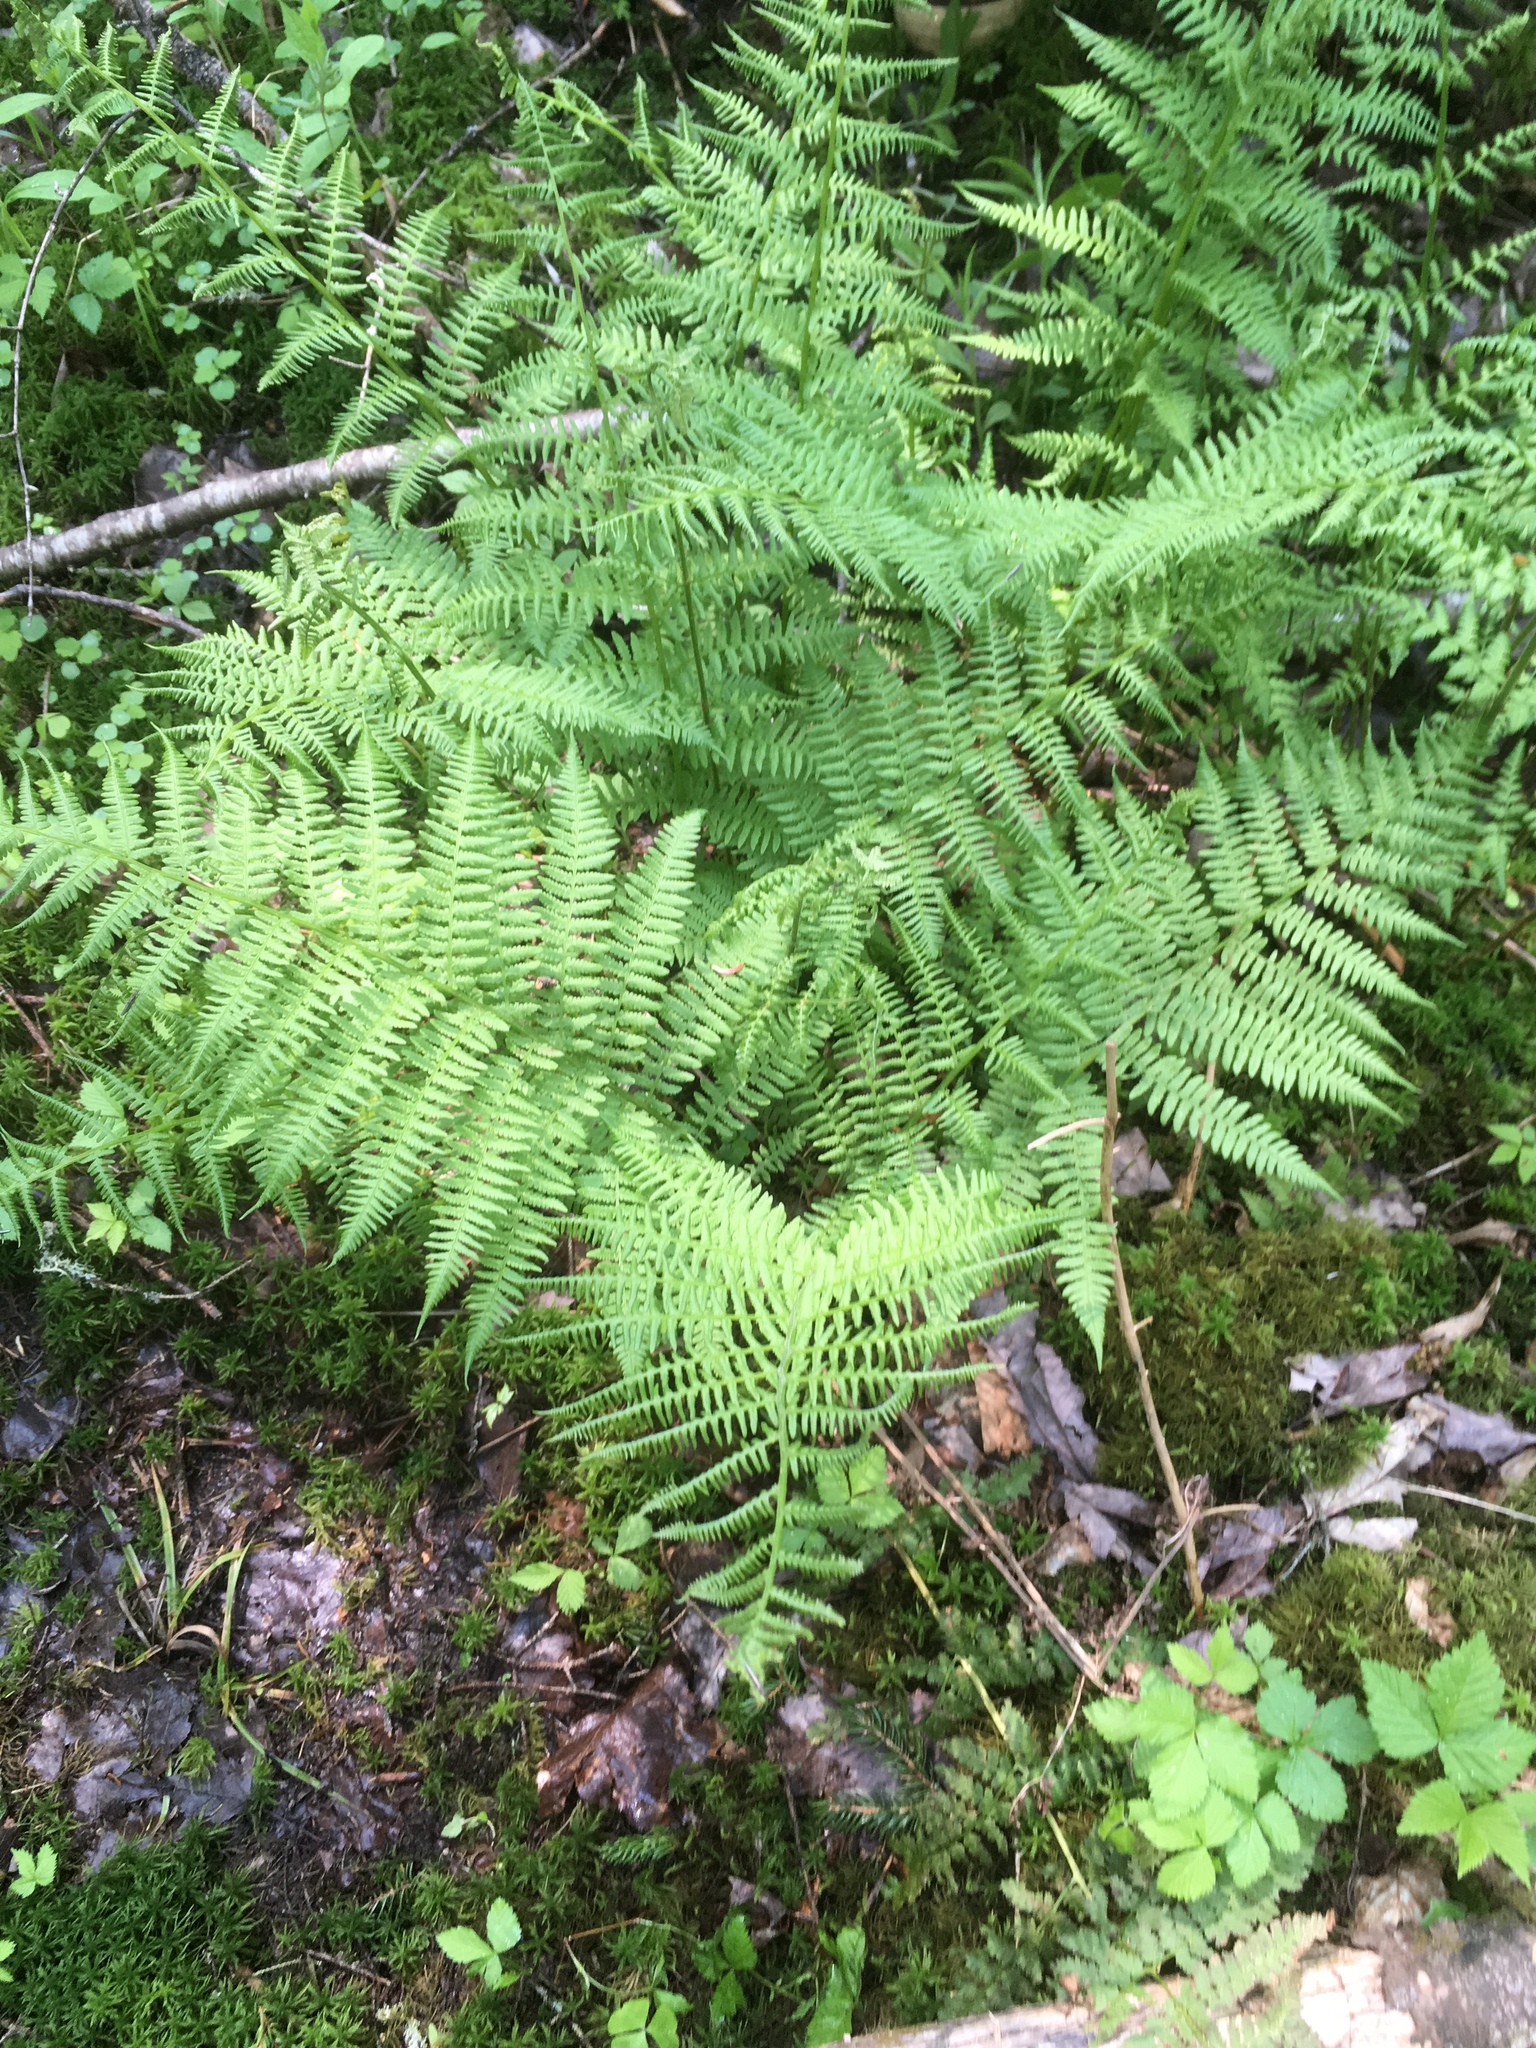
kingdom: Plantae
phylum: Tracheophyta
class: Polypodiopsida
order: Polypodiales
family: Athyriaceae
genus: Athyrium
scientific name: Athyrium angustum
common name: Northern lady fern
